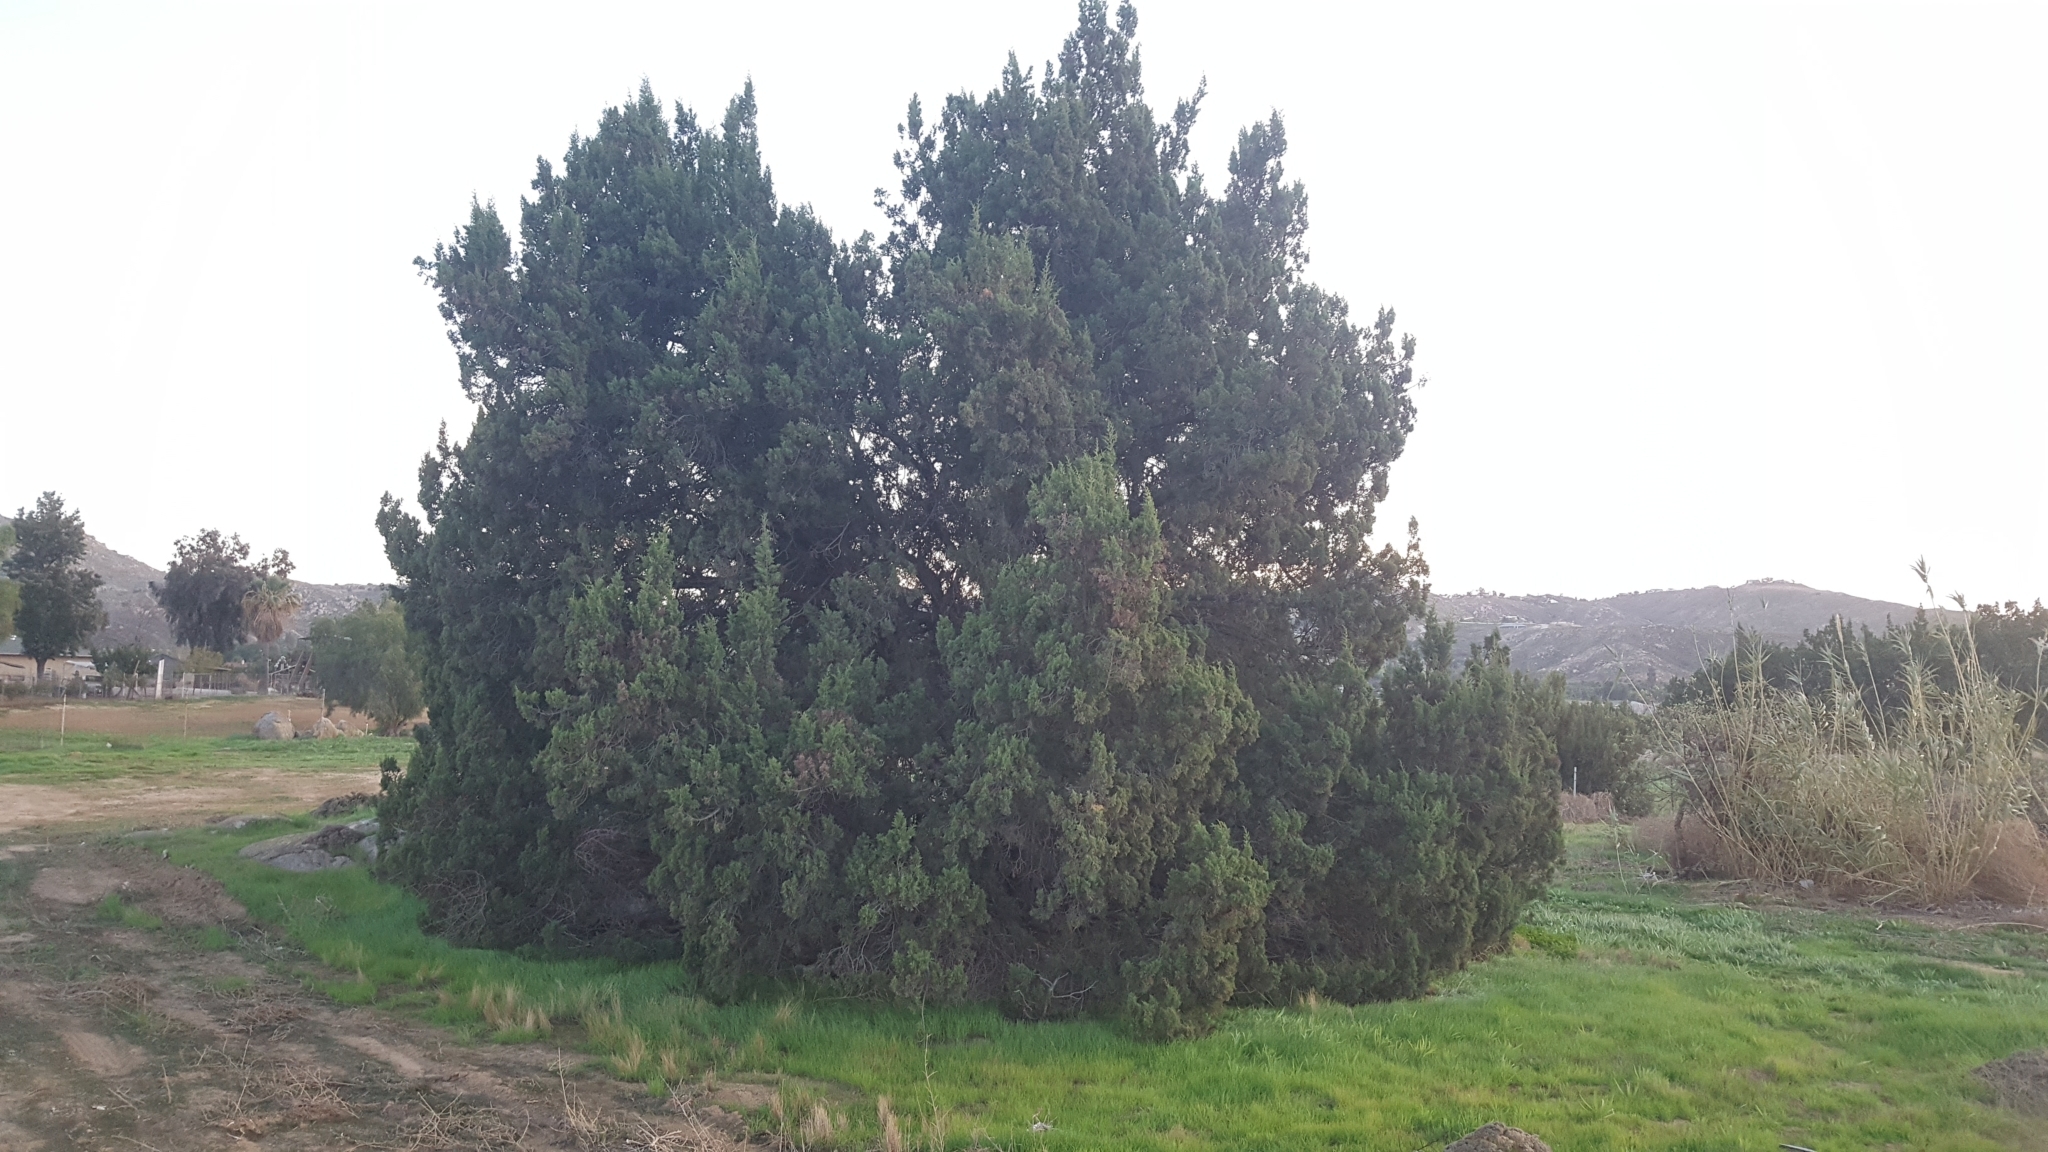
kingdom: Plantae
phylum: Tracheophyta
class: Pinopsida
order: Pinales
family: Cupressaceae
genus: Juniperus
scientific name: Juniperus californica
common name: California juniper
